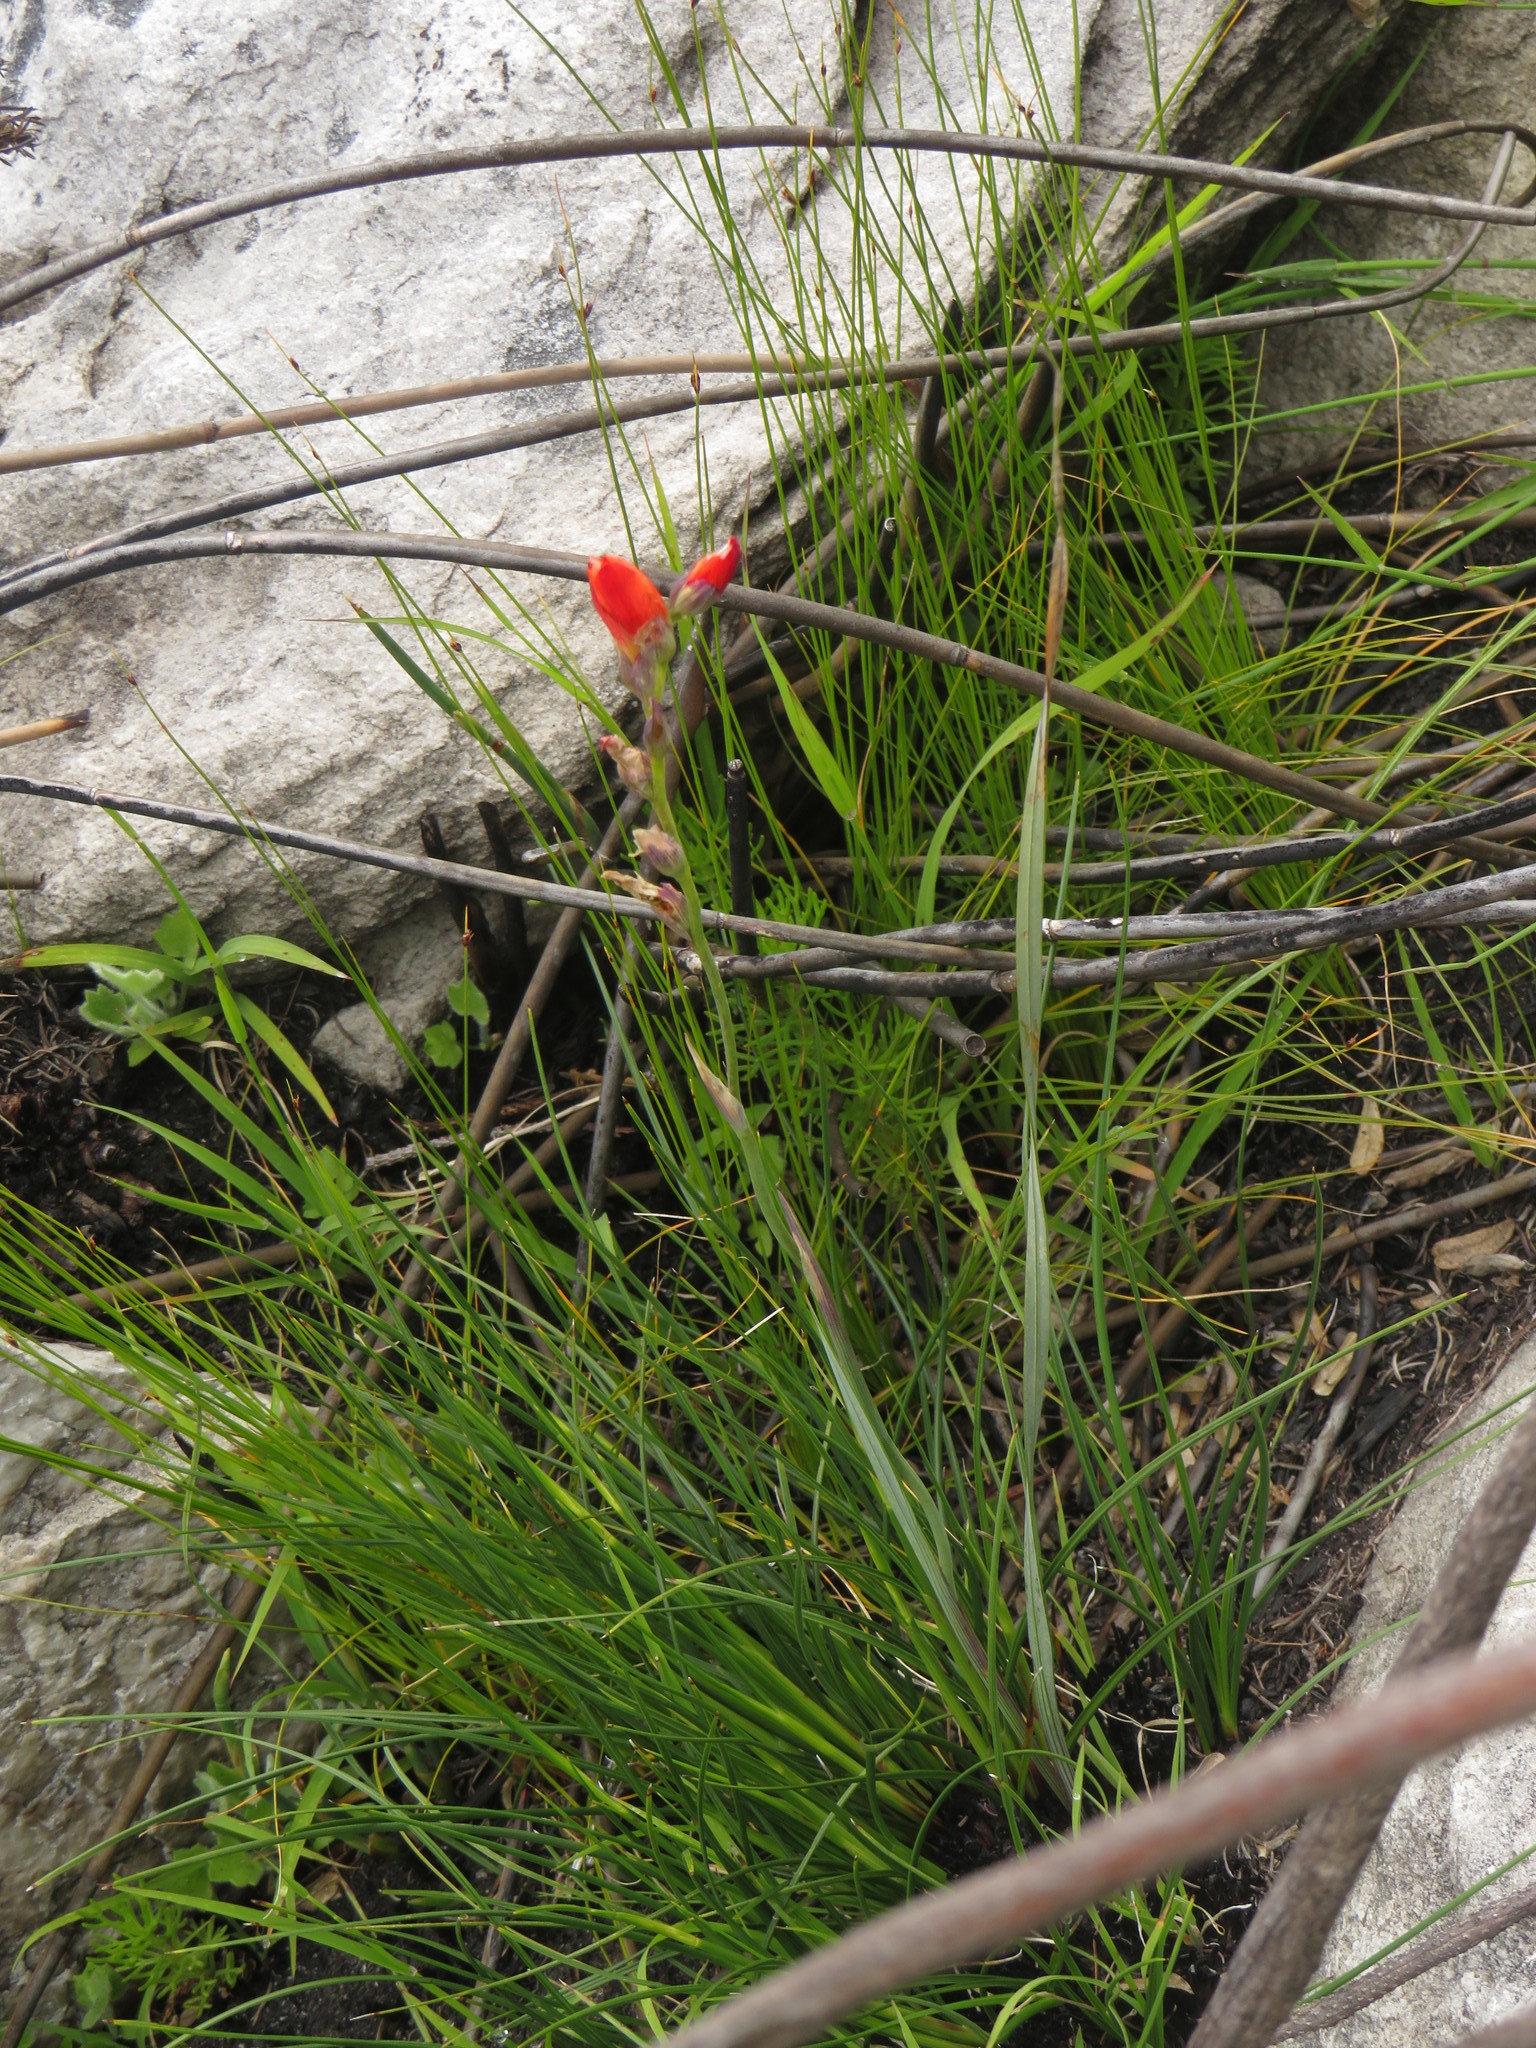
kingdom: Plantae
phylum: Tracheophyta
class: Liliopsida
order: Asparagales
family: Iridaceae
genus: Gladiolus
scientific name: Gladiolus brevitubus
